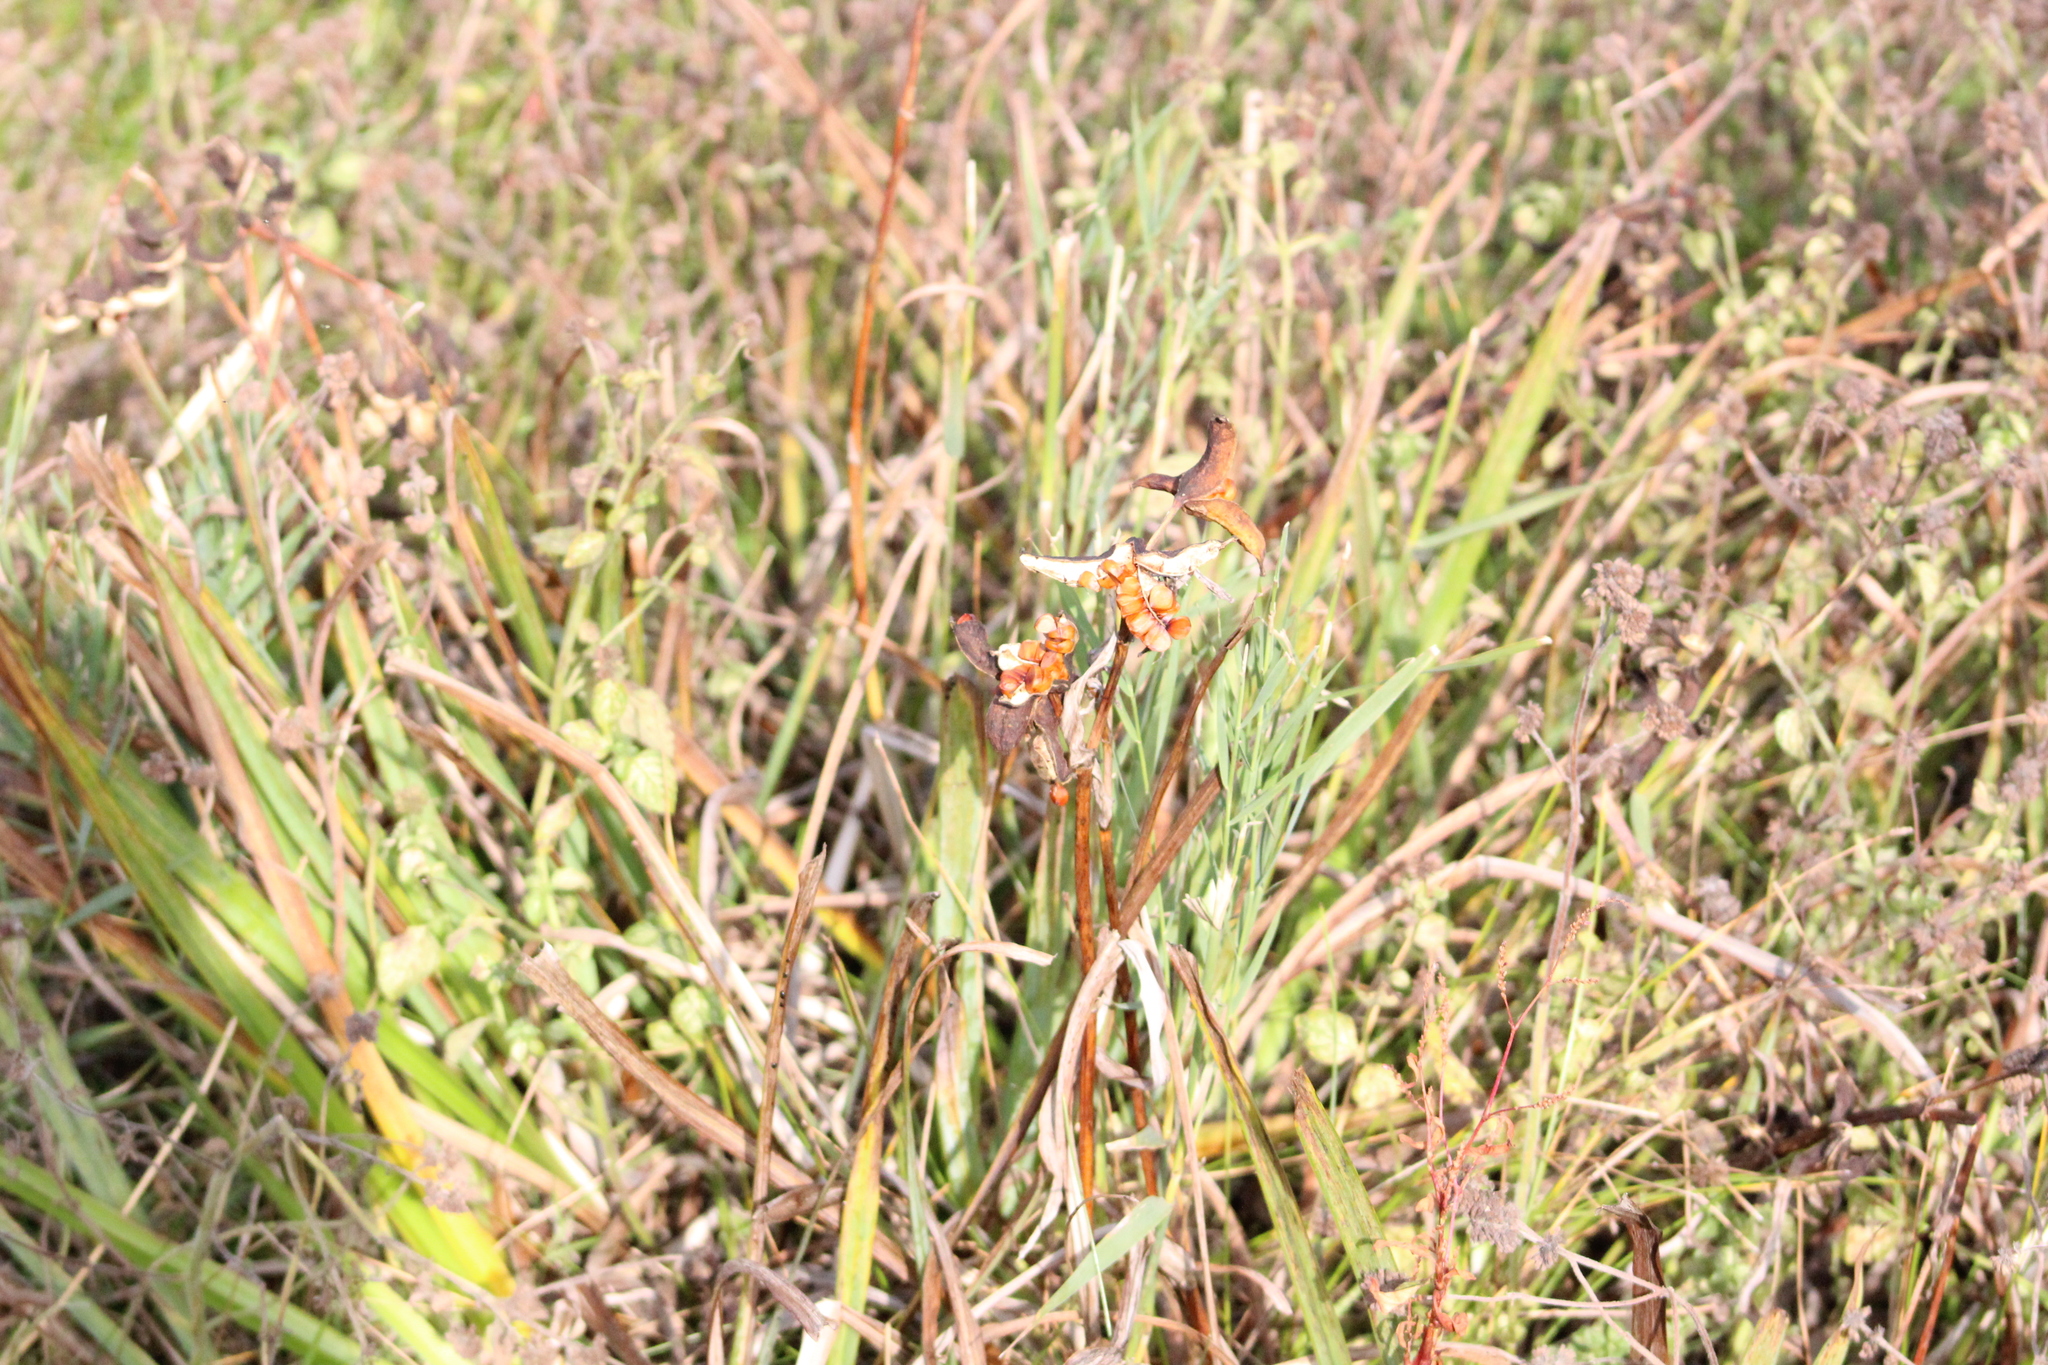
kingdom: Plantae
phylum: Tracheophyta
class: Liliopsida
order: Asparagales
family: Iridaceae
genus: Iris
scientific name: Iris pseudacorus
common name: Yellow flag
